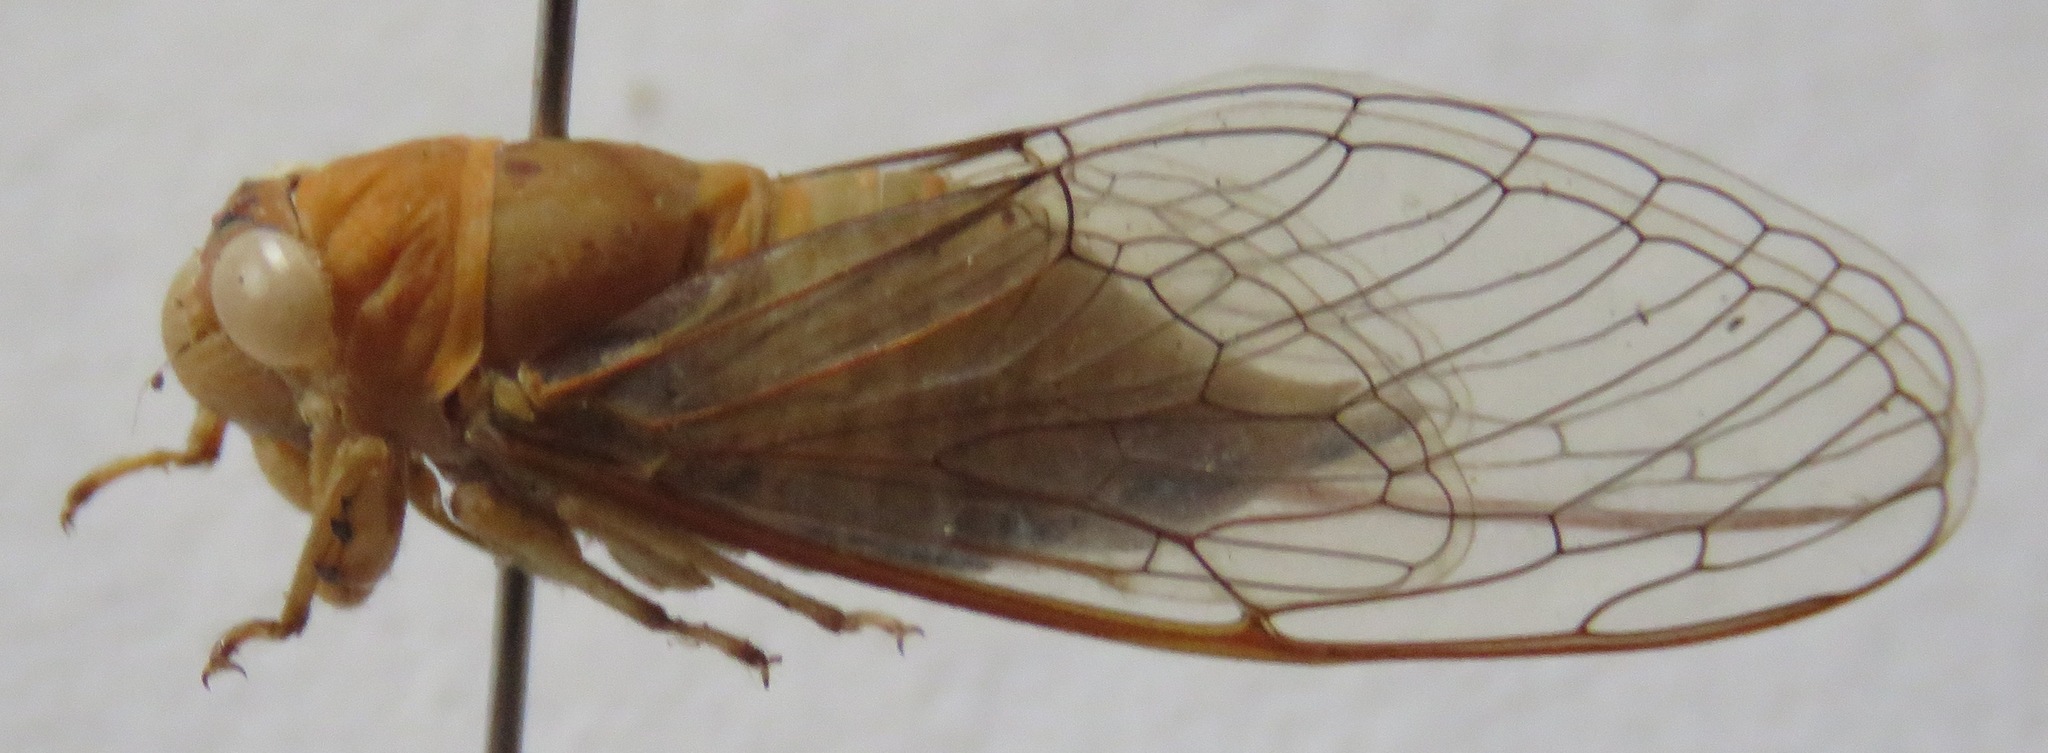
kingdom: Animalia
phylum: Arthropoda
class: Insecta
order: Hemiptera
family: Cicadidae
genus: Herrera
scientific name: Herrera coyamensis
